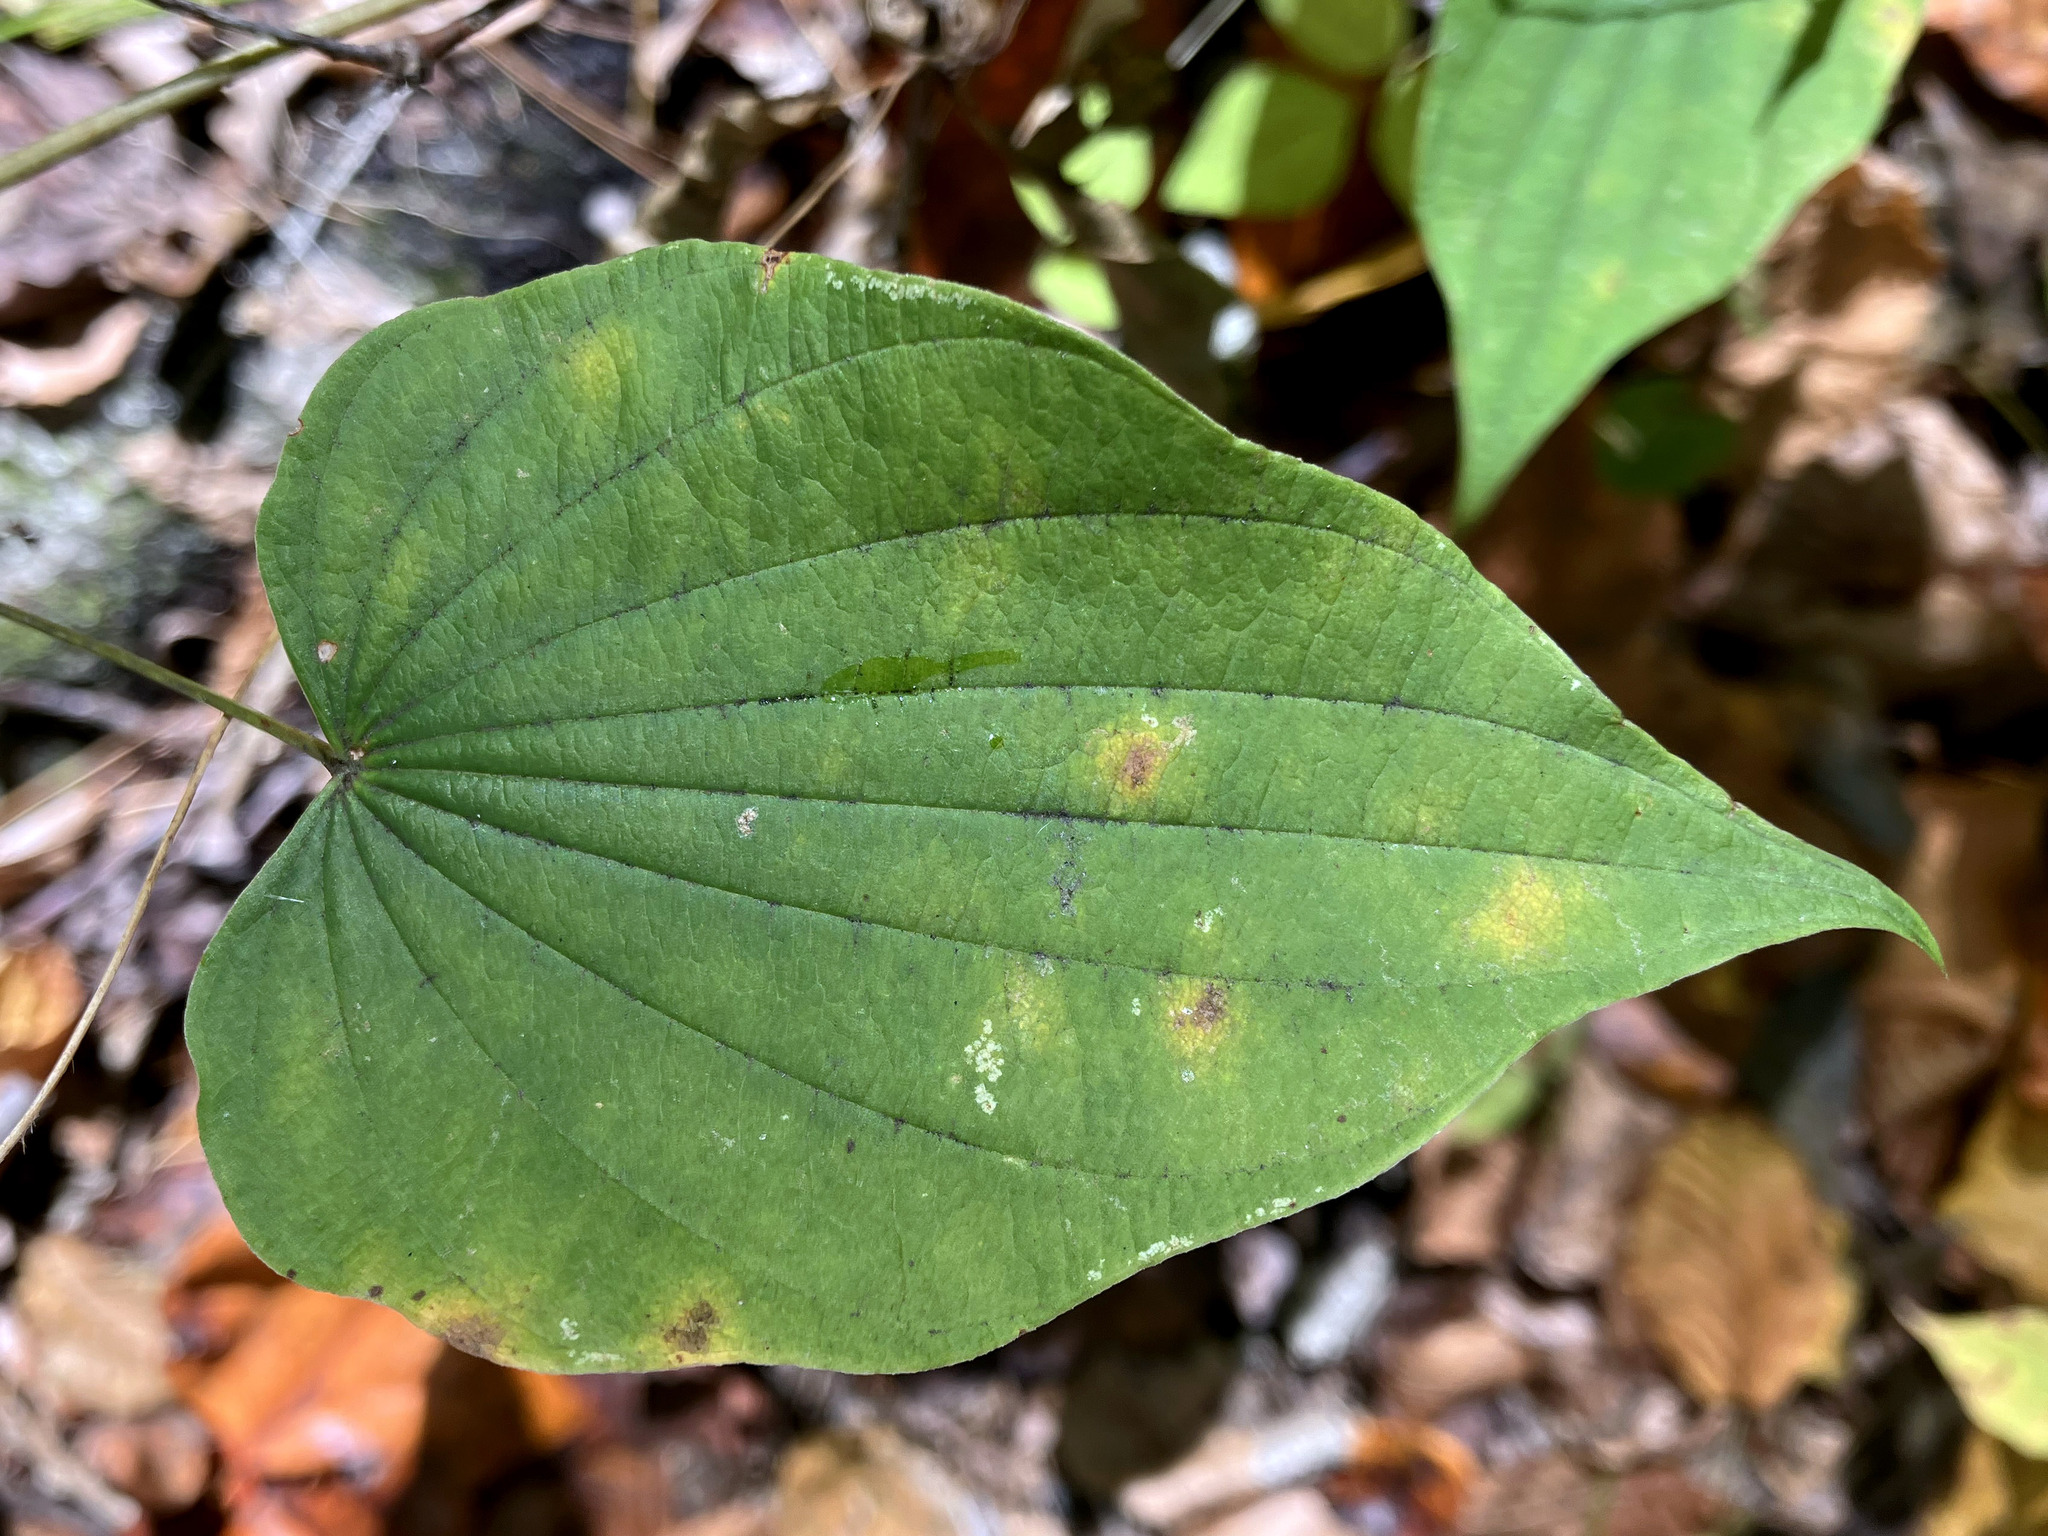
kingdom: Plantae
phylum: Tracheophyta
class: Liliopsida
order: Dioscoreales
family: Dioscoreaceae
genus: Dioscorea
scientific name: Dioscorea villosa
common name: Wild yam
